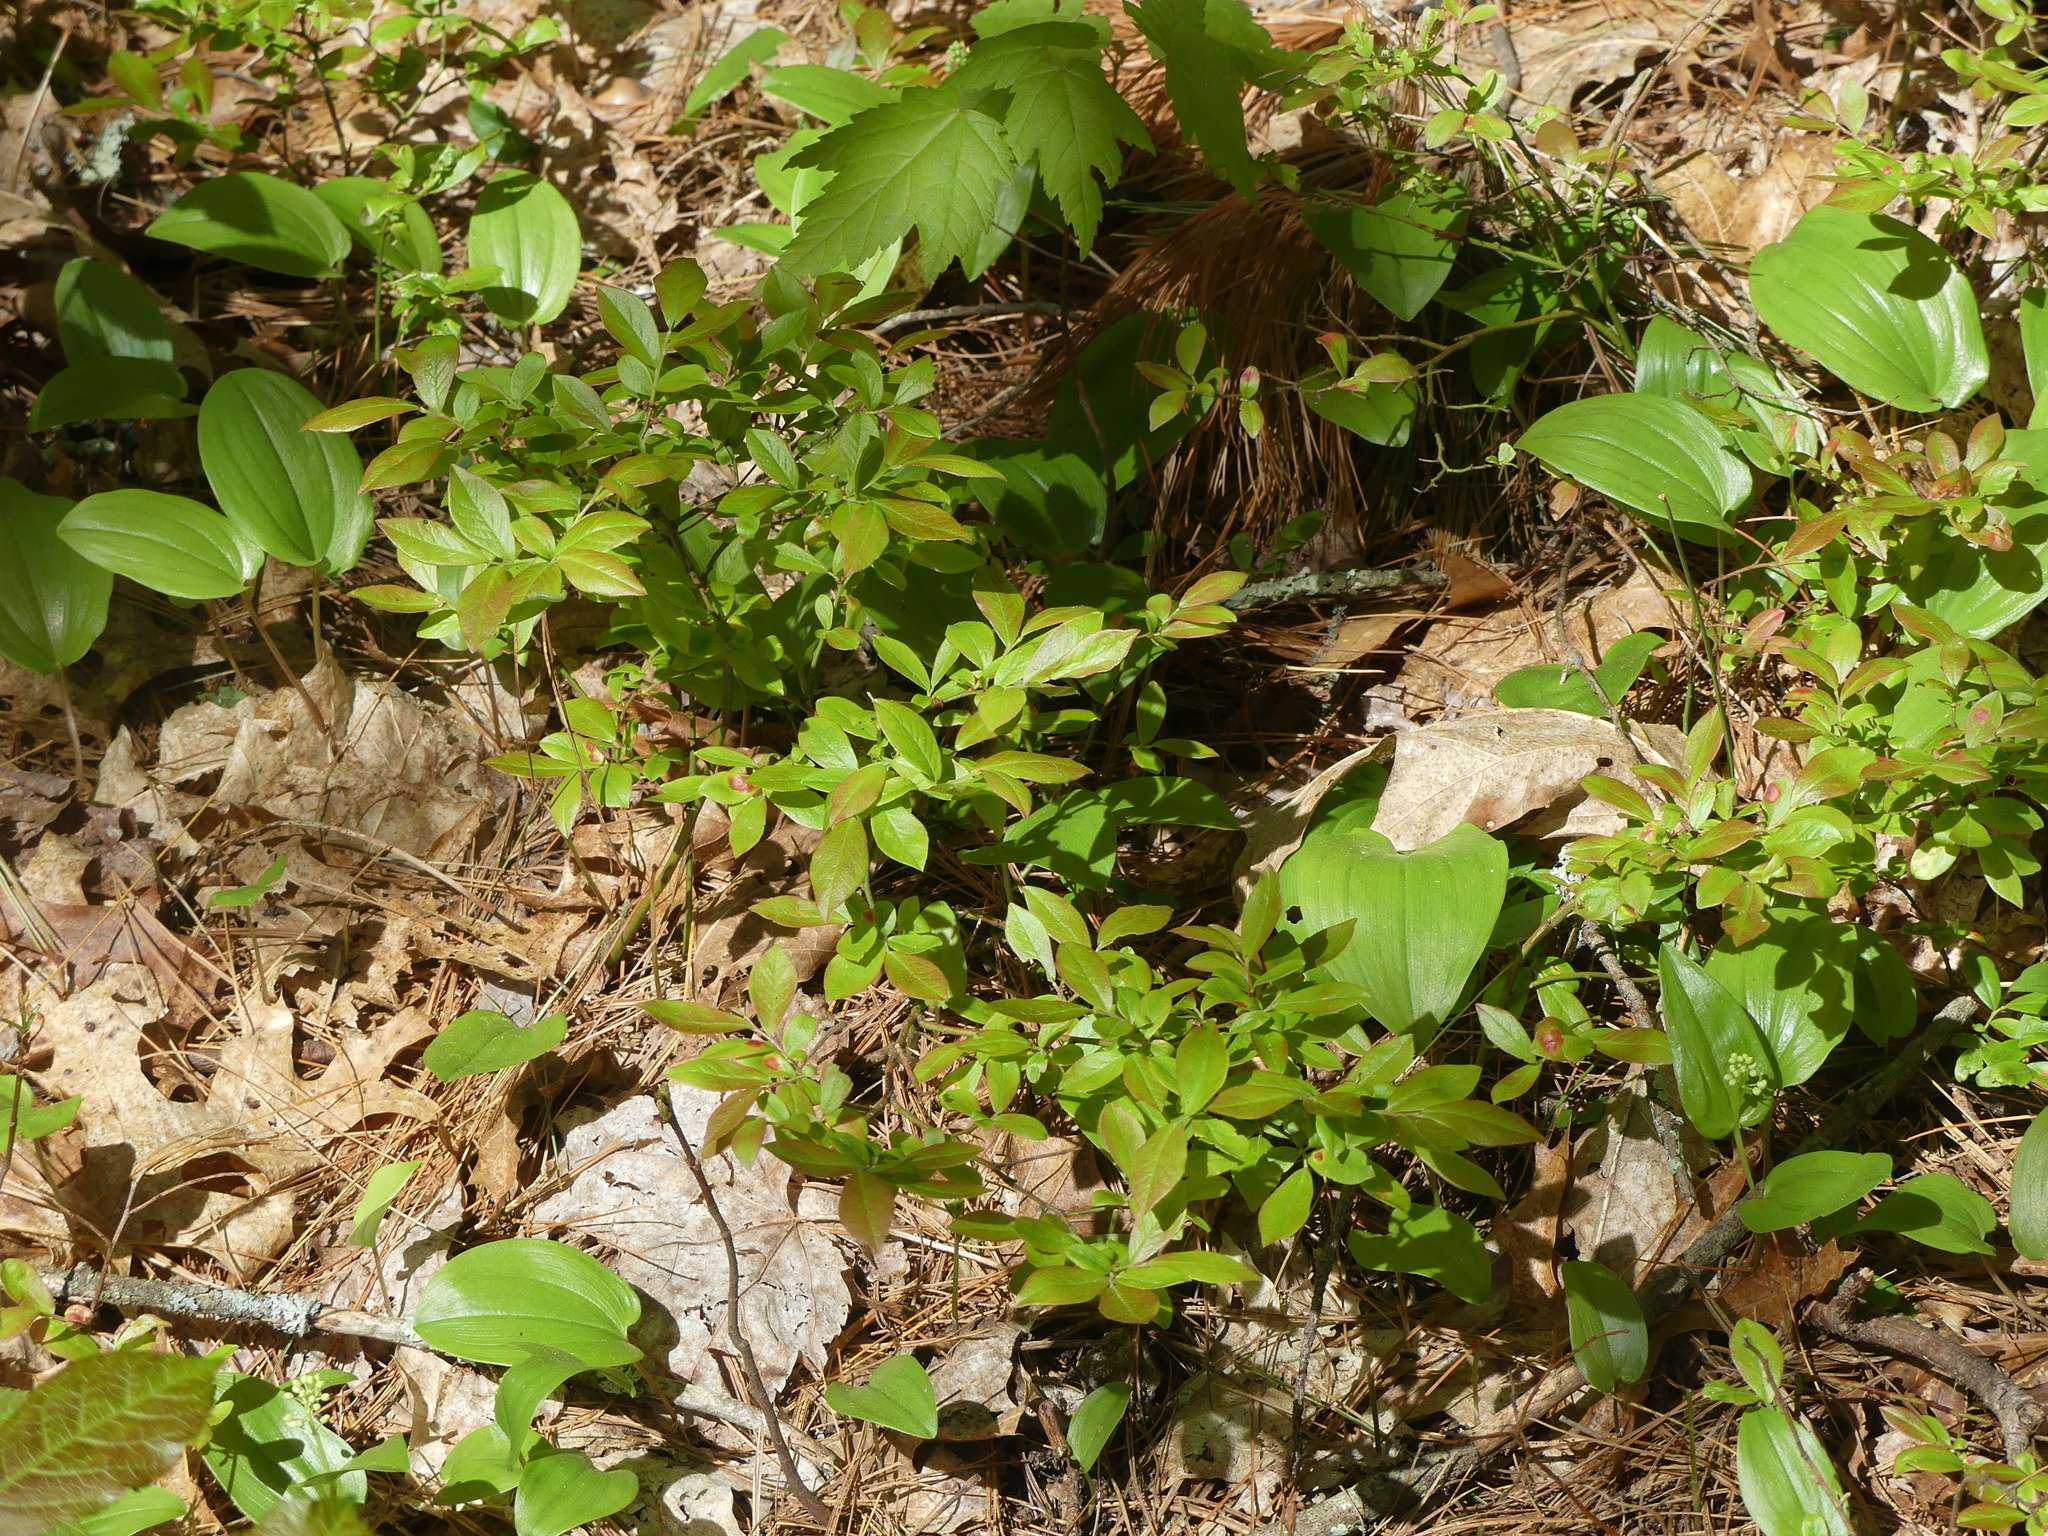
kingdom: Plantae
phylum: Tracheophyta
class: Magnoliopsida
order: Ericales
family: Ericaceae
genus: Vaccinium
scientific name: Vaccinium angustifolium
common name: Early lowbush blueberry
